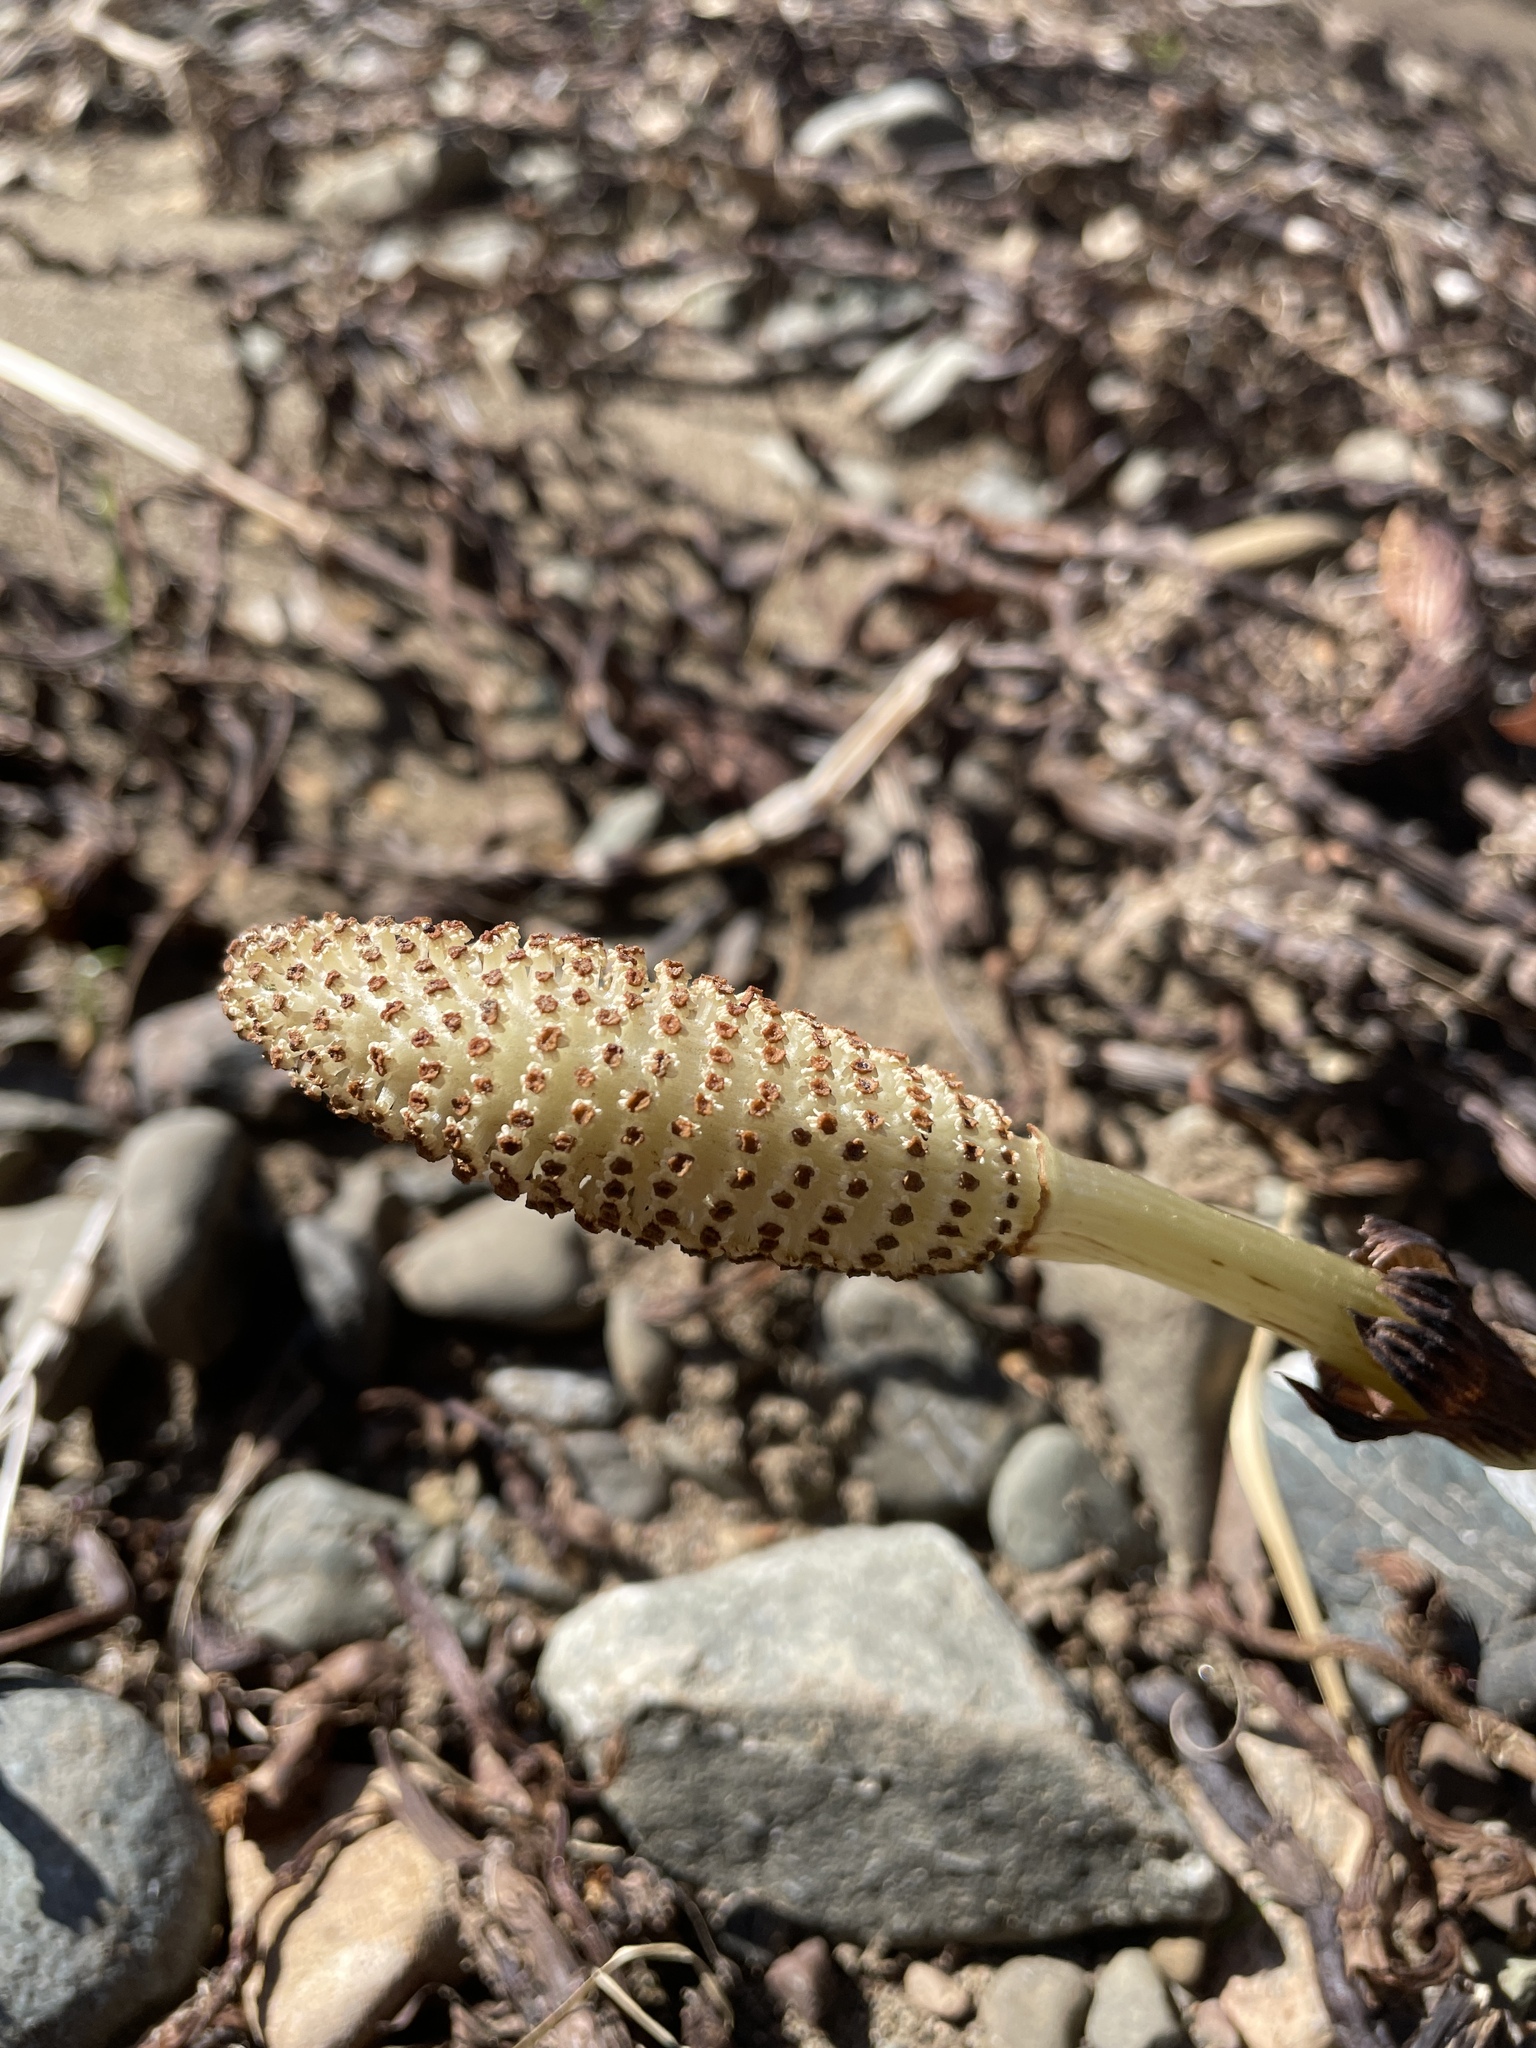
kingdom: Plantae
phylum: Tracheophyta
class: Polypodiopsida
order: Equisetales
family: Equisetaceae
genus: Equisetum
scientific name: Equisetum braunii
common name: Braun's horsetail
